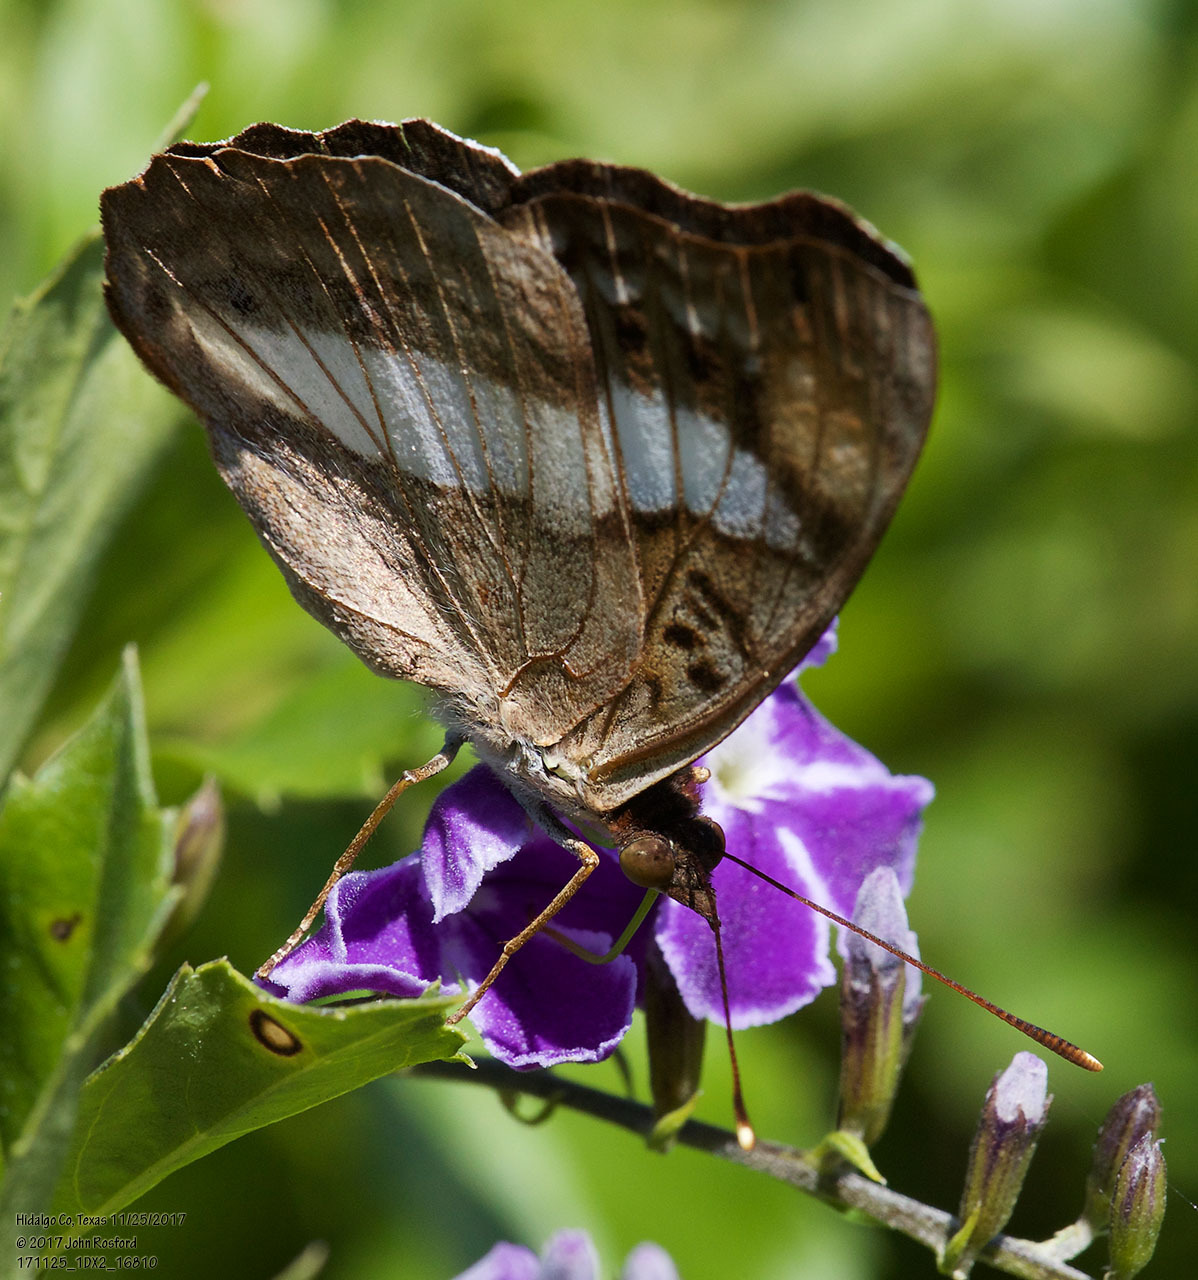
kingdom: Animalia
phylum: Arthropoda
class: Insecta
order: Lepidoptera
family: Nymphalidae
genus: Doxocopa
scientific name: Doxocopa pavon
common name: Pavon emperor
